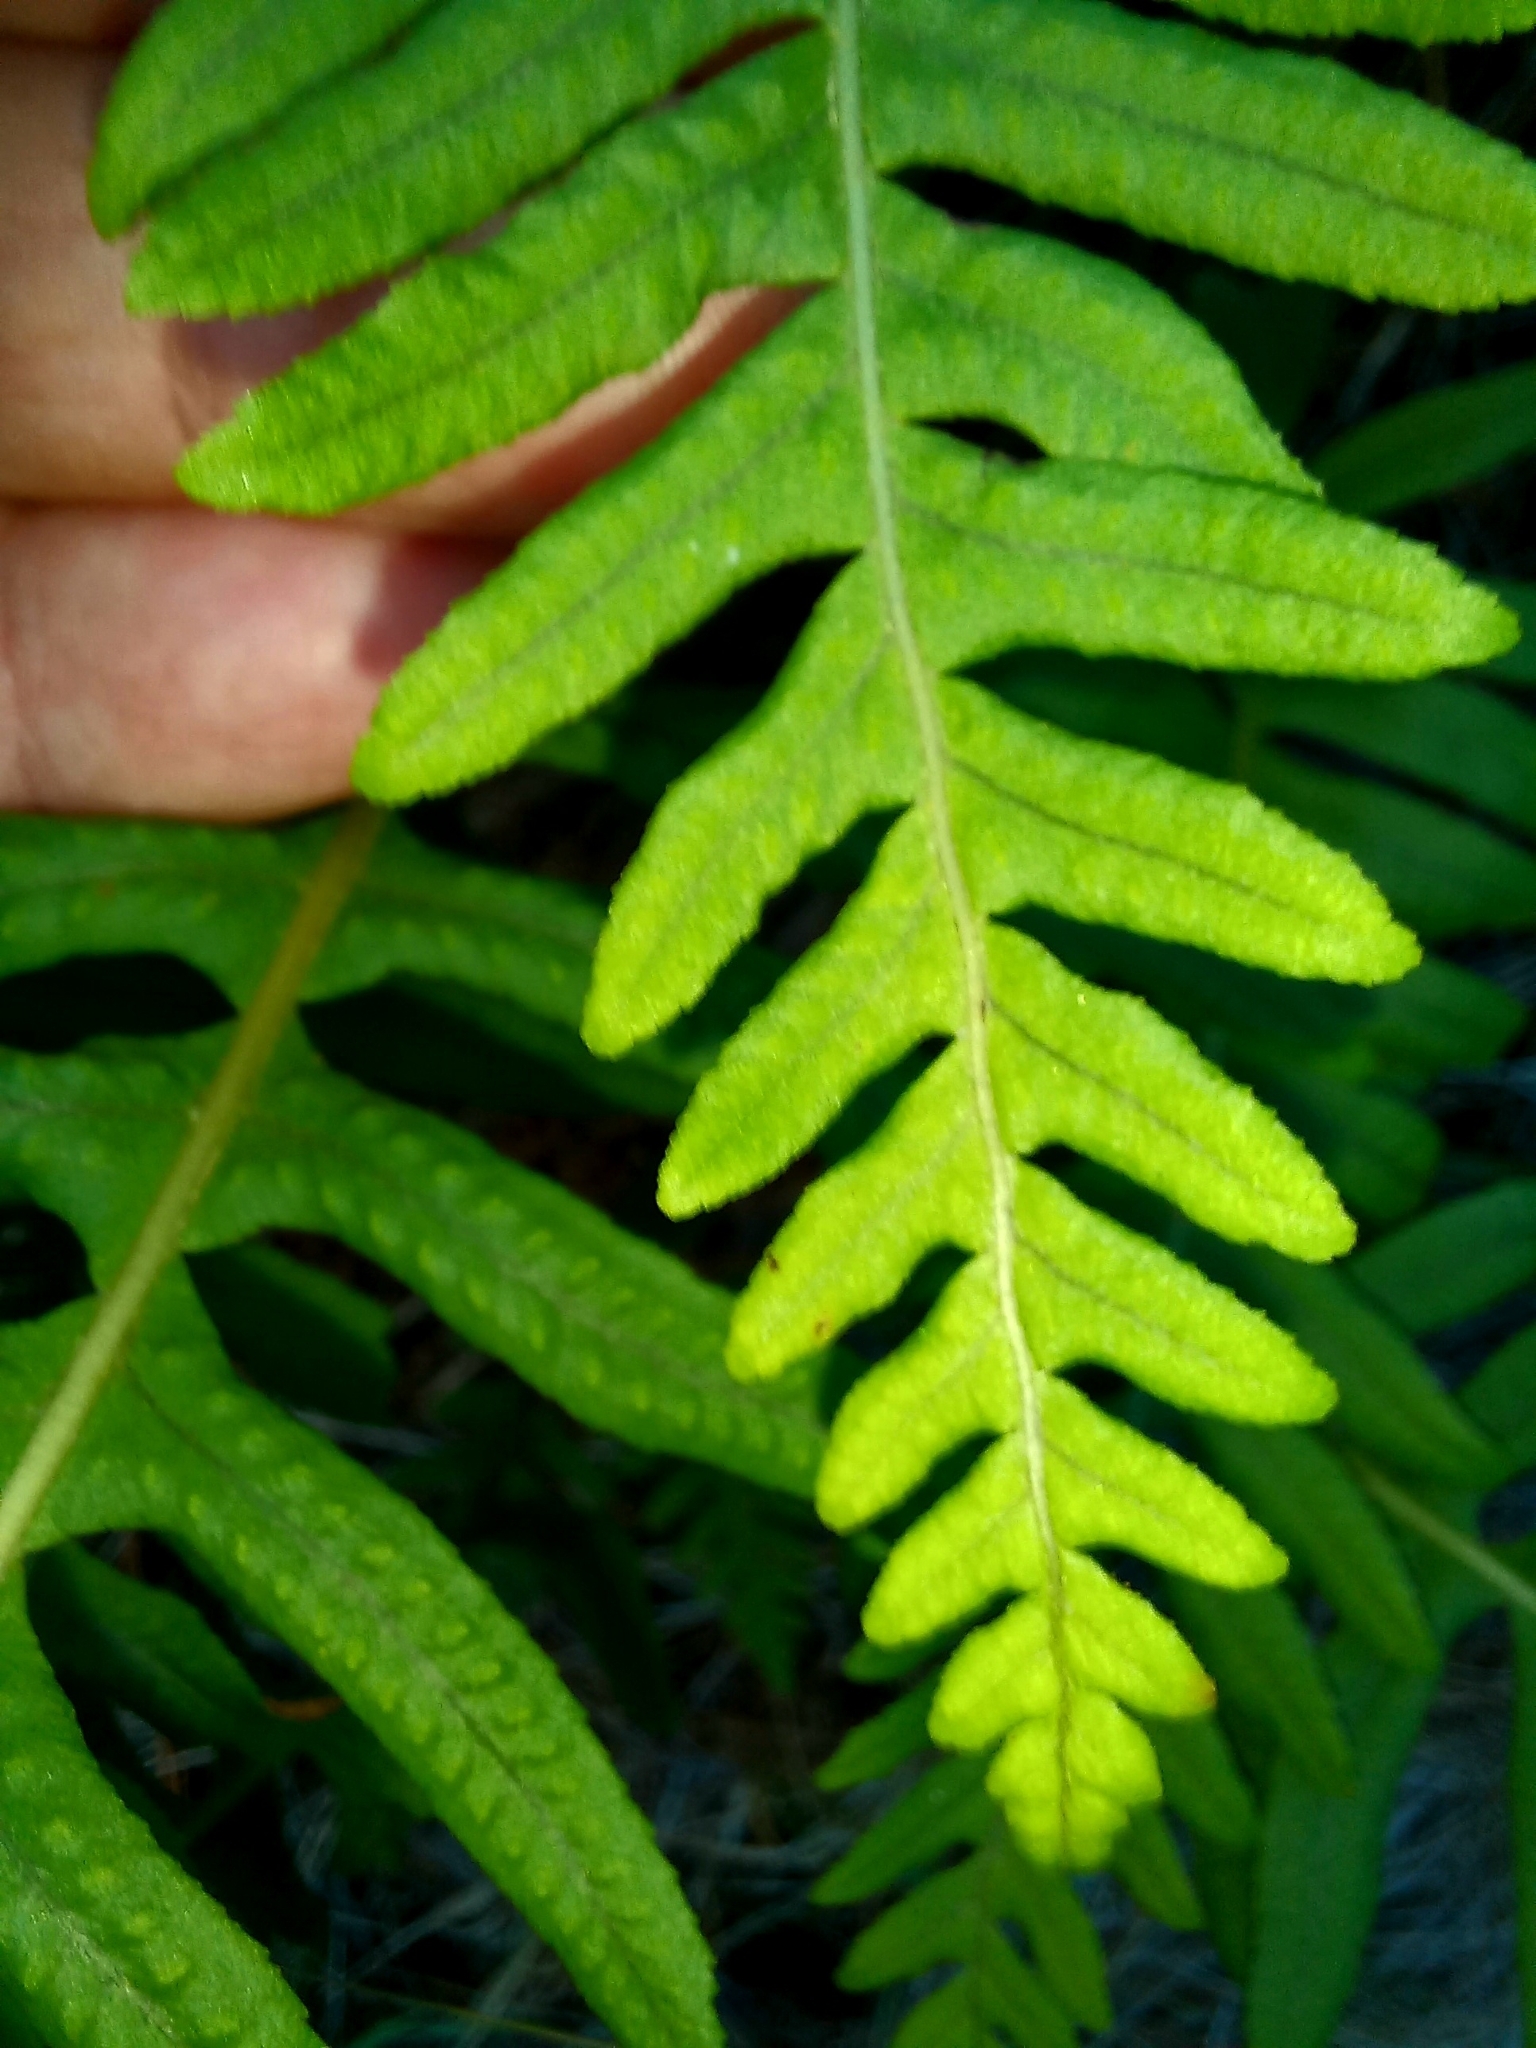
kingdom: Plantae
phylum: Tracheophyta
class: Polypodiopsida
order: Polypodiales
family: Polypodiaceae
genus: Polypodium
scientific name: Polypodium vulgare
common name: Common polypody
